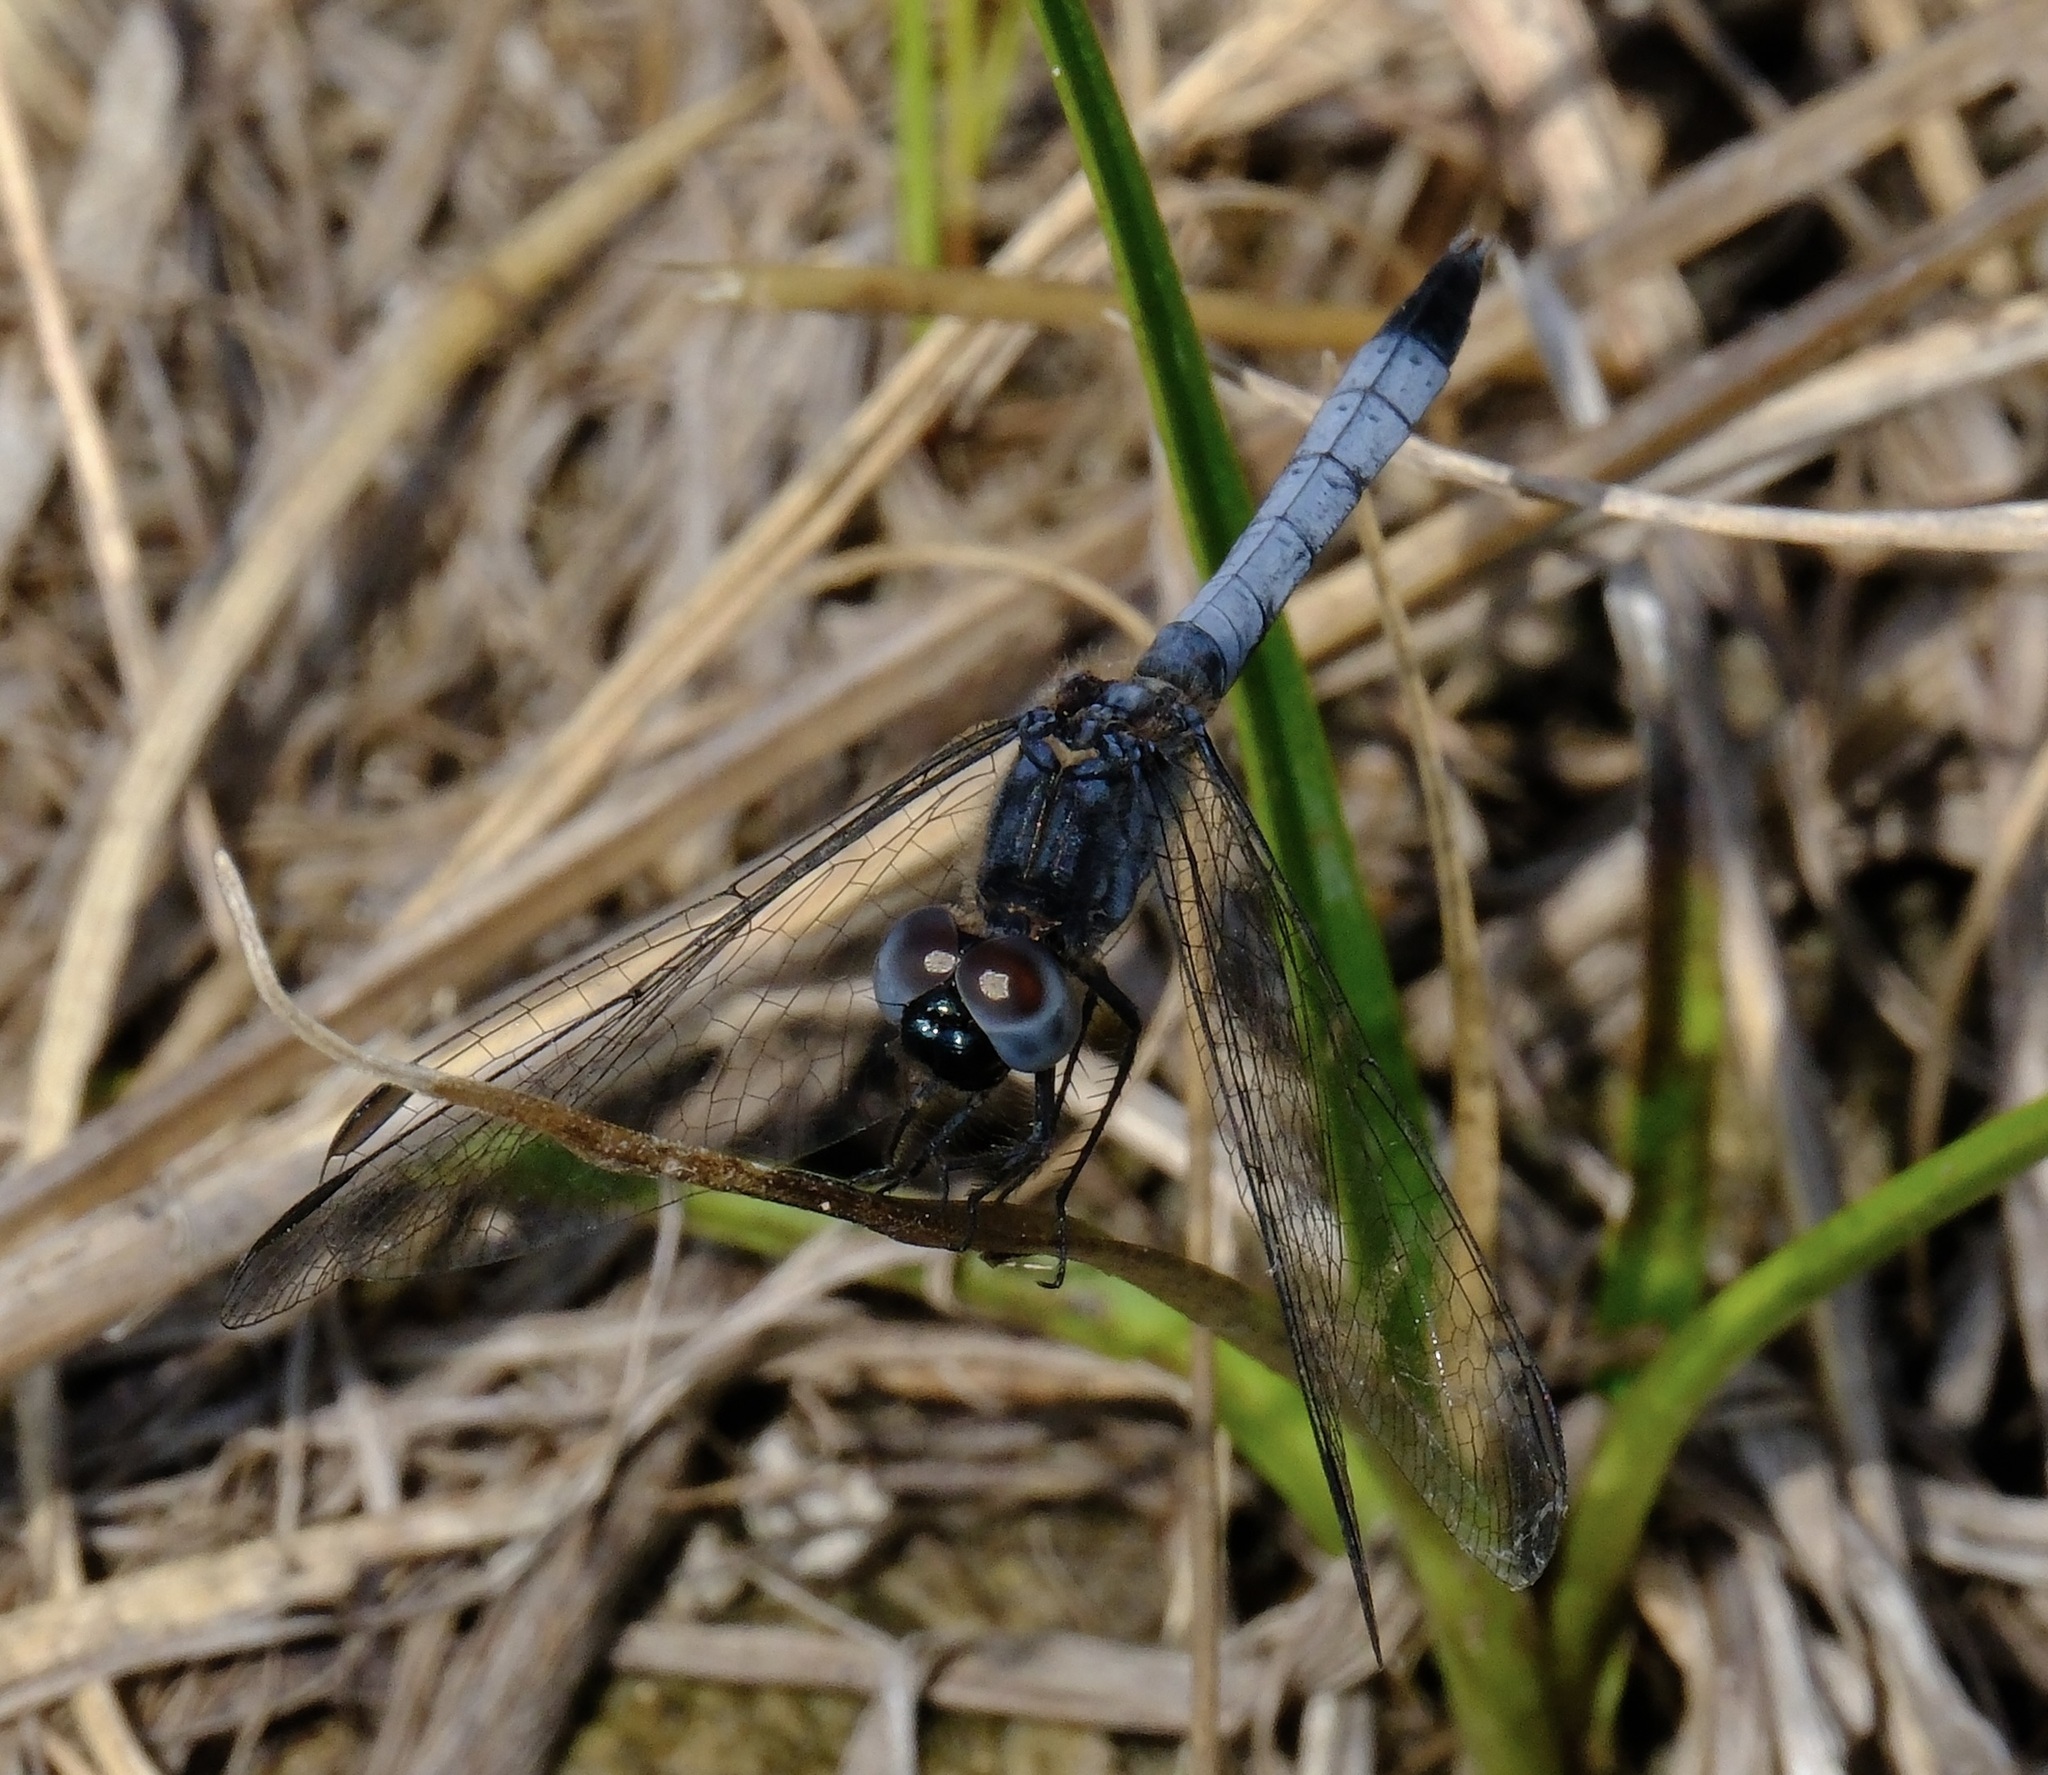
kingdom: Animalia
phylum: Arthropoda
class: Insecta
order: Odonata
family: Libellulidae
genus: Erythrodiplax
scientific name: Erythrodiplax minuscula
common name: Little blue dragonlet
